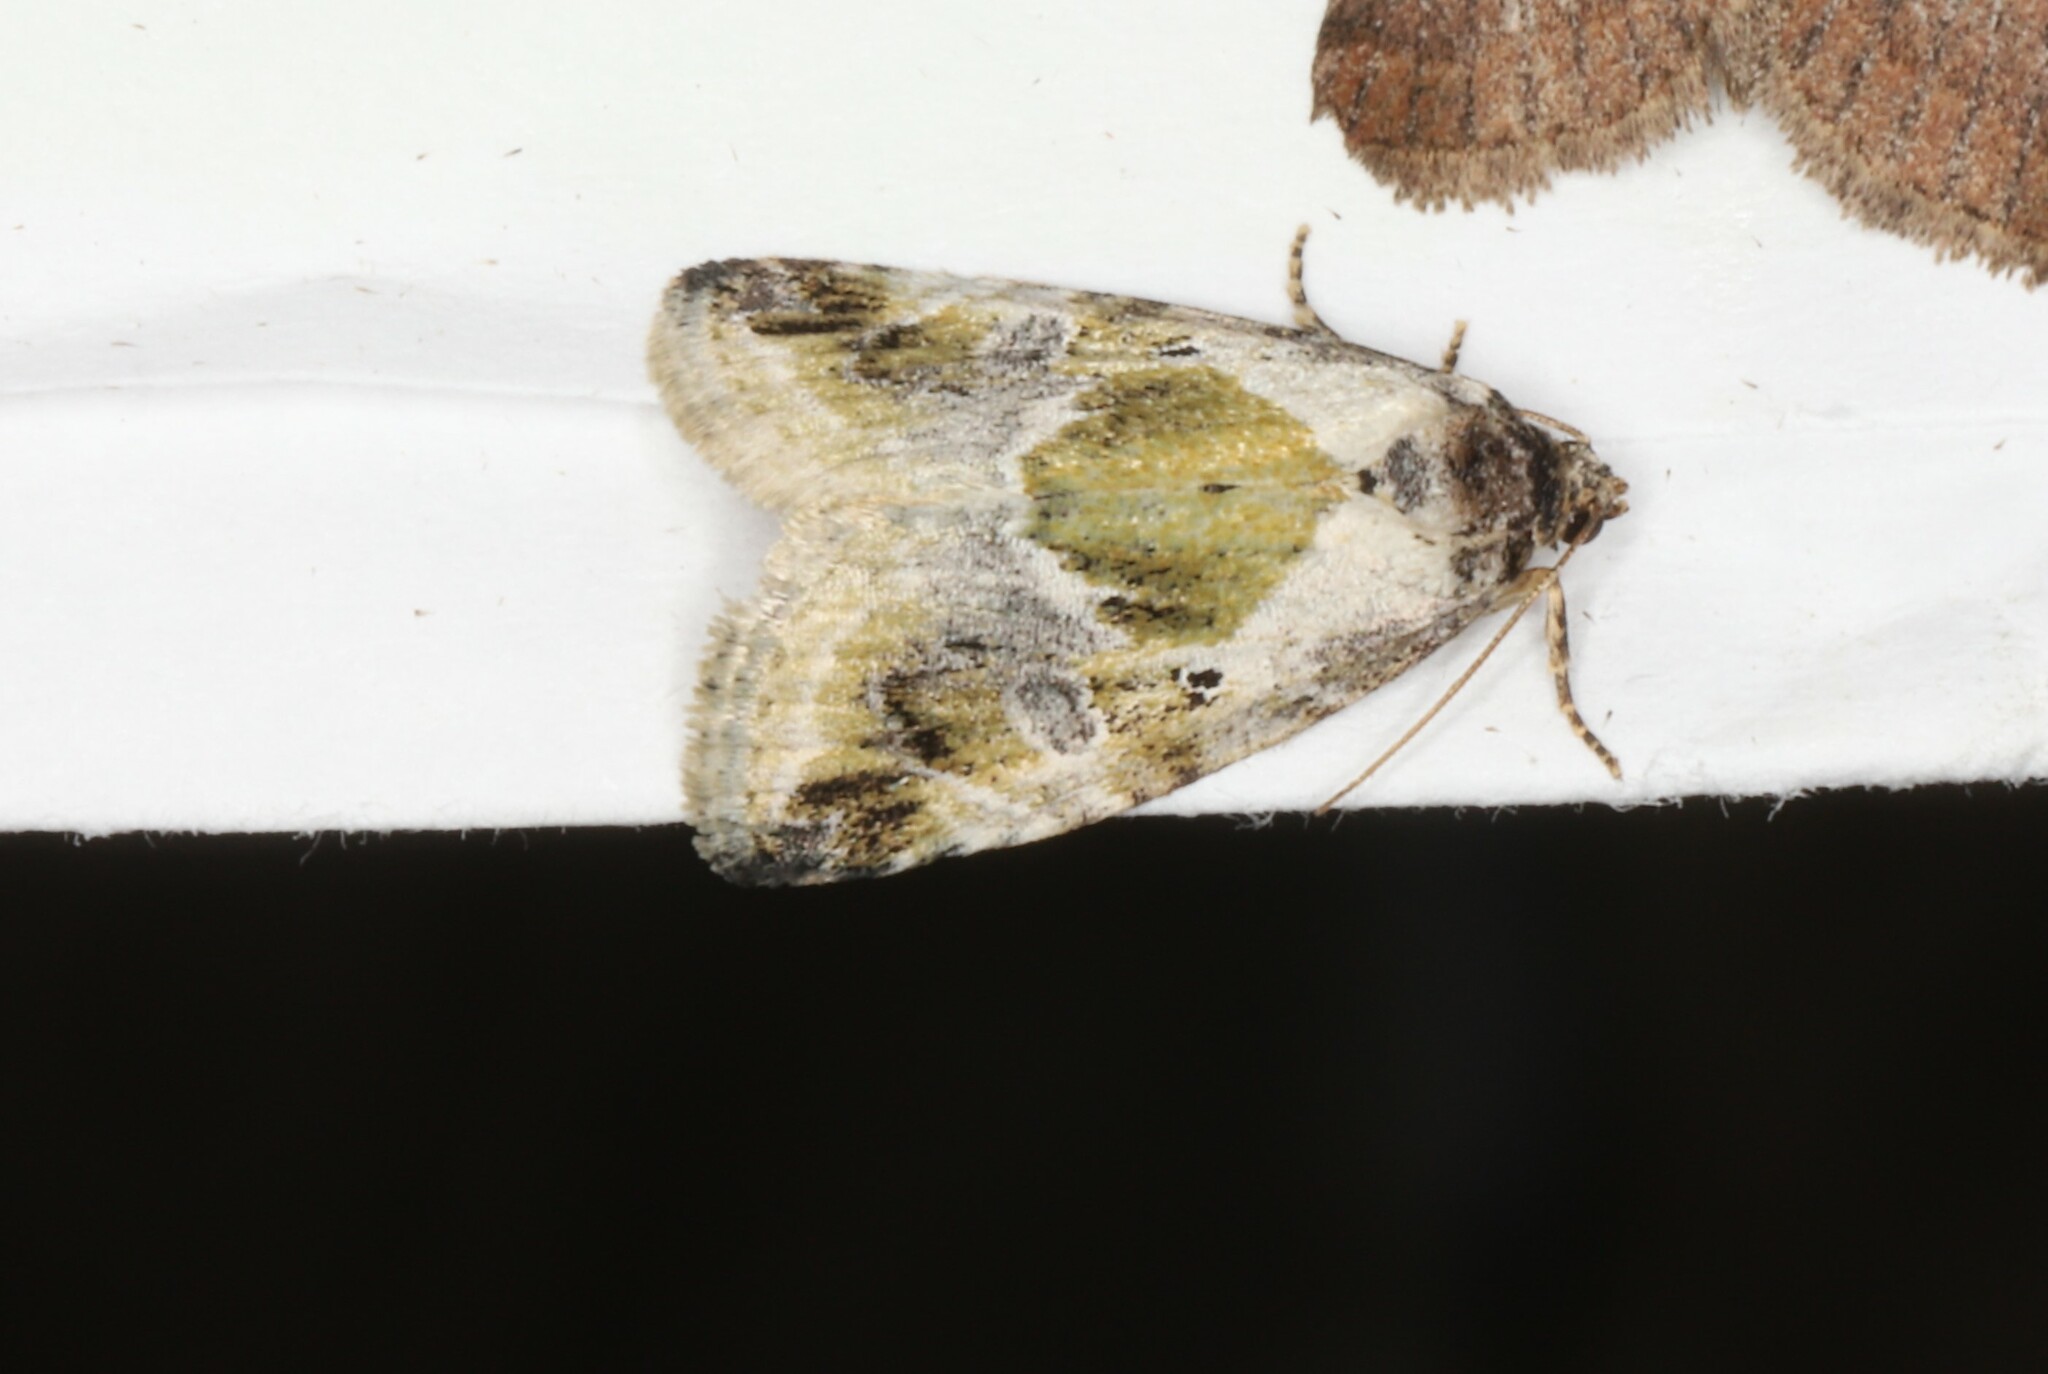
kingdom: Animalia
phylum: Arthropoda
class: Insecta
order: Lepidoptera
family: Noctuidae
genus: Maliattha
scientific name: Maliattha synochitis
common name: Black-dotted glyph
